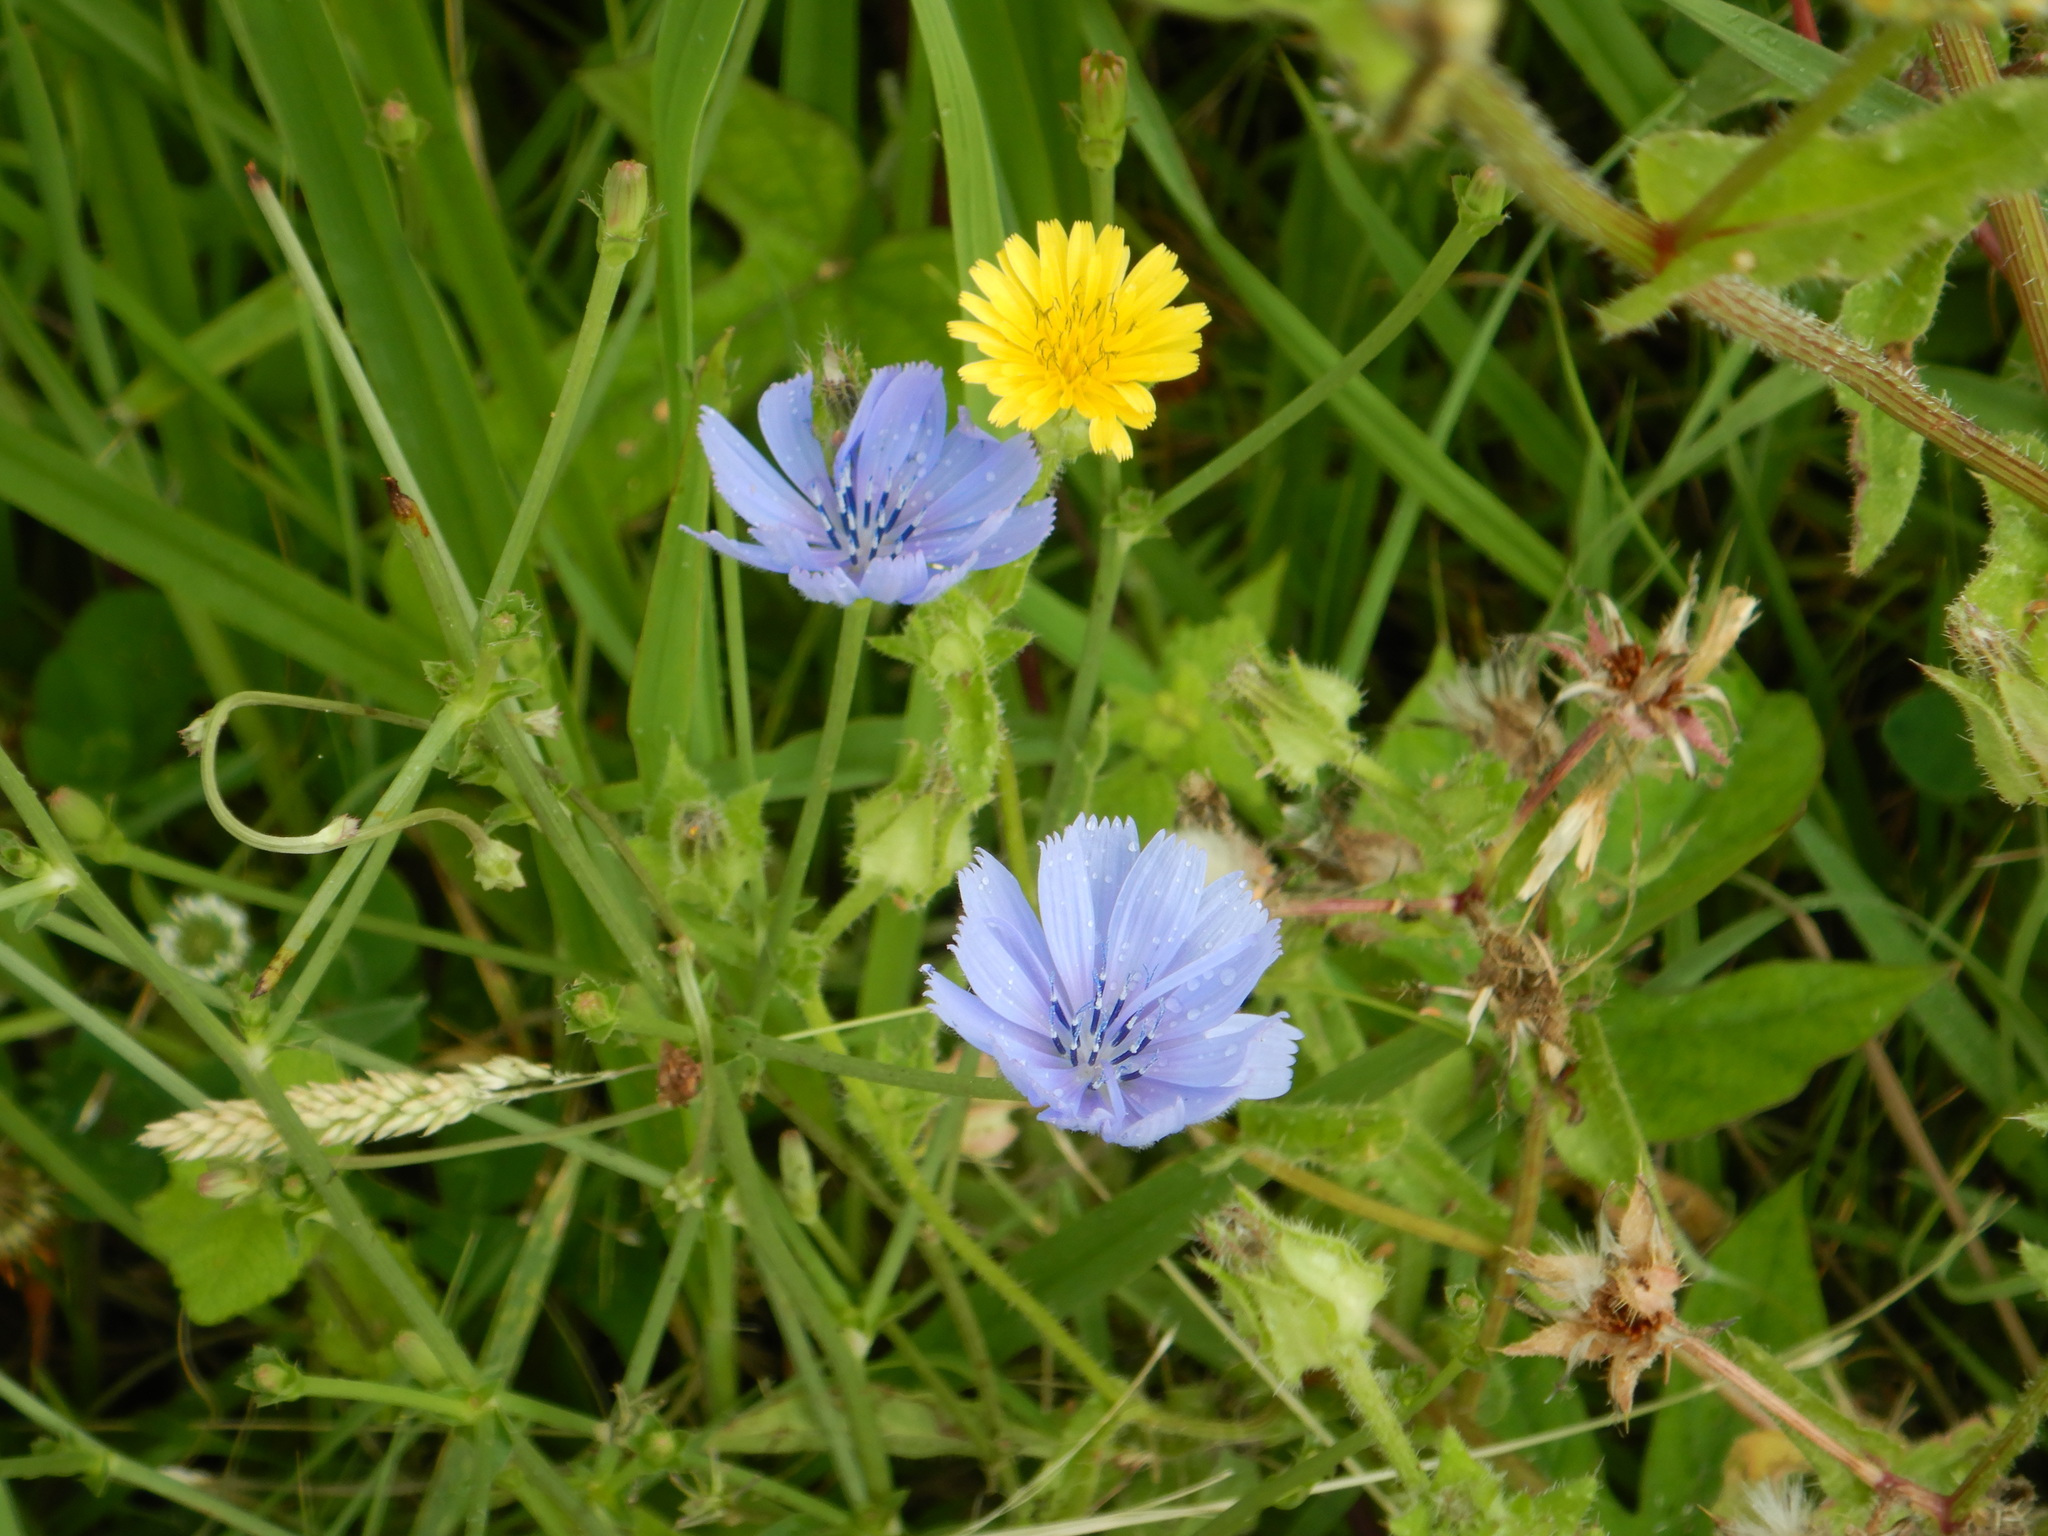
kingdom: Plantae
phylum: Tracheophyta
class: Magnoliopsida
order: Asterales
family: Asteraceae
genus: Cichorium
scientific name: Cichorium intybus
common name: Chicory
